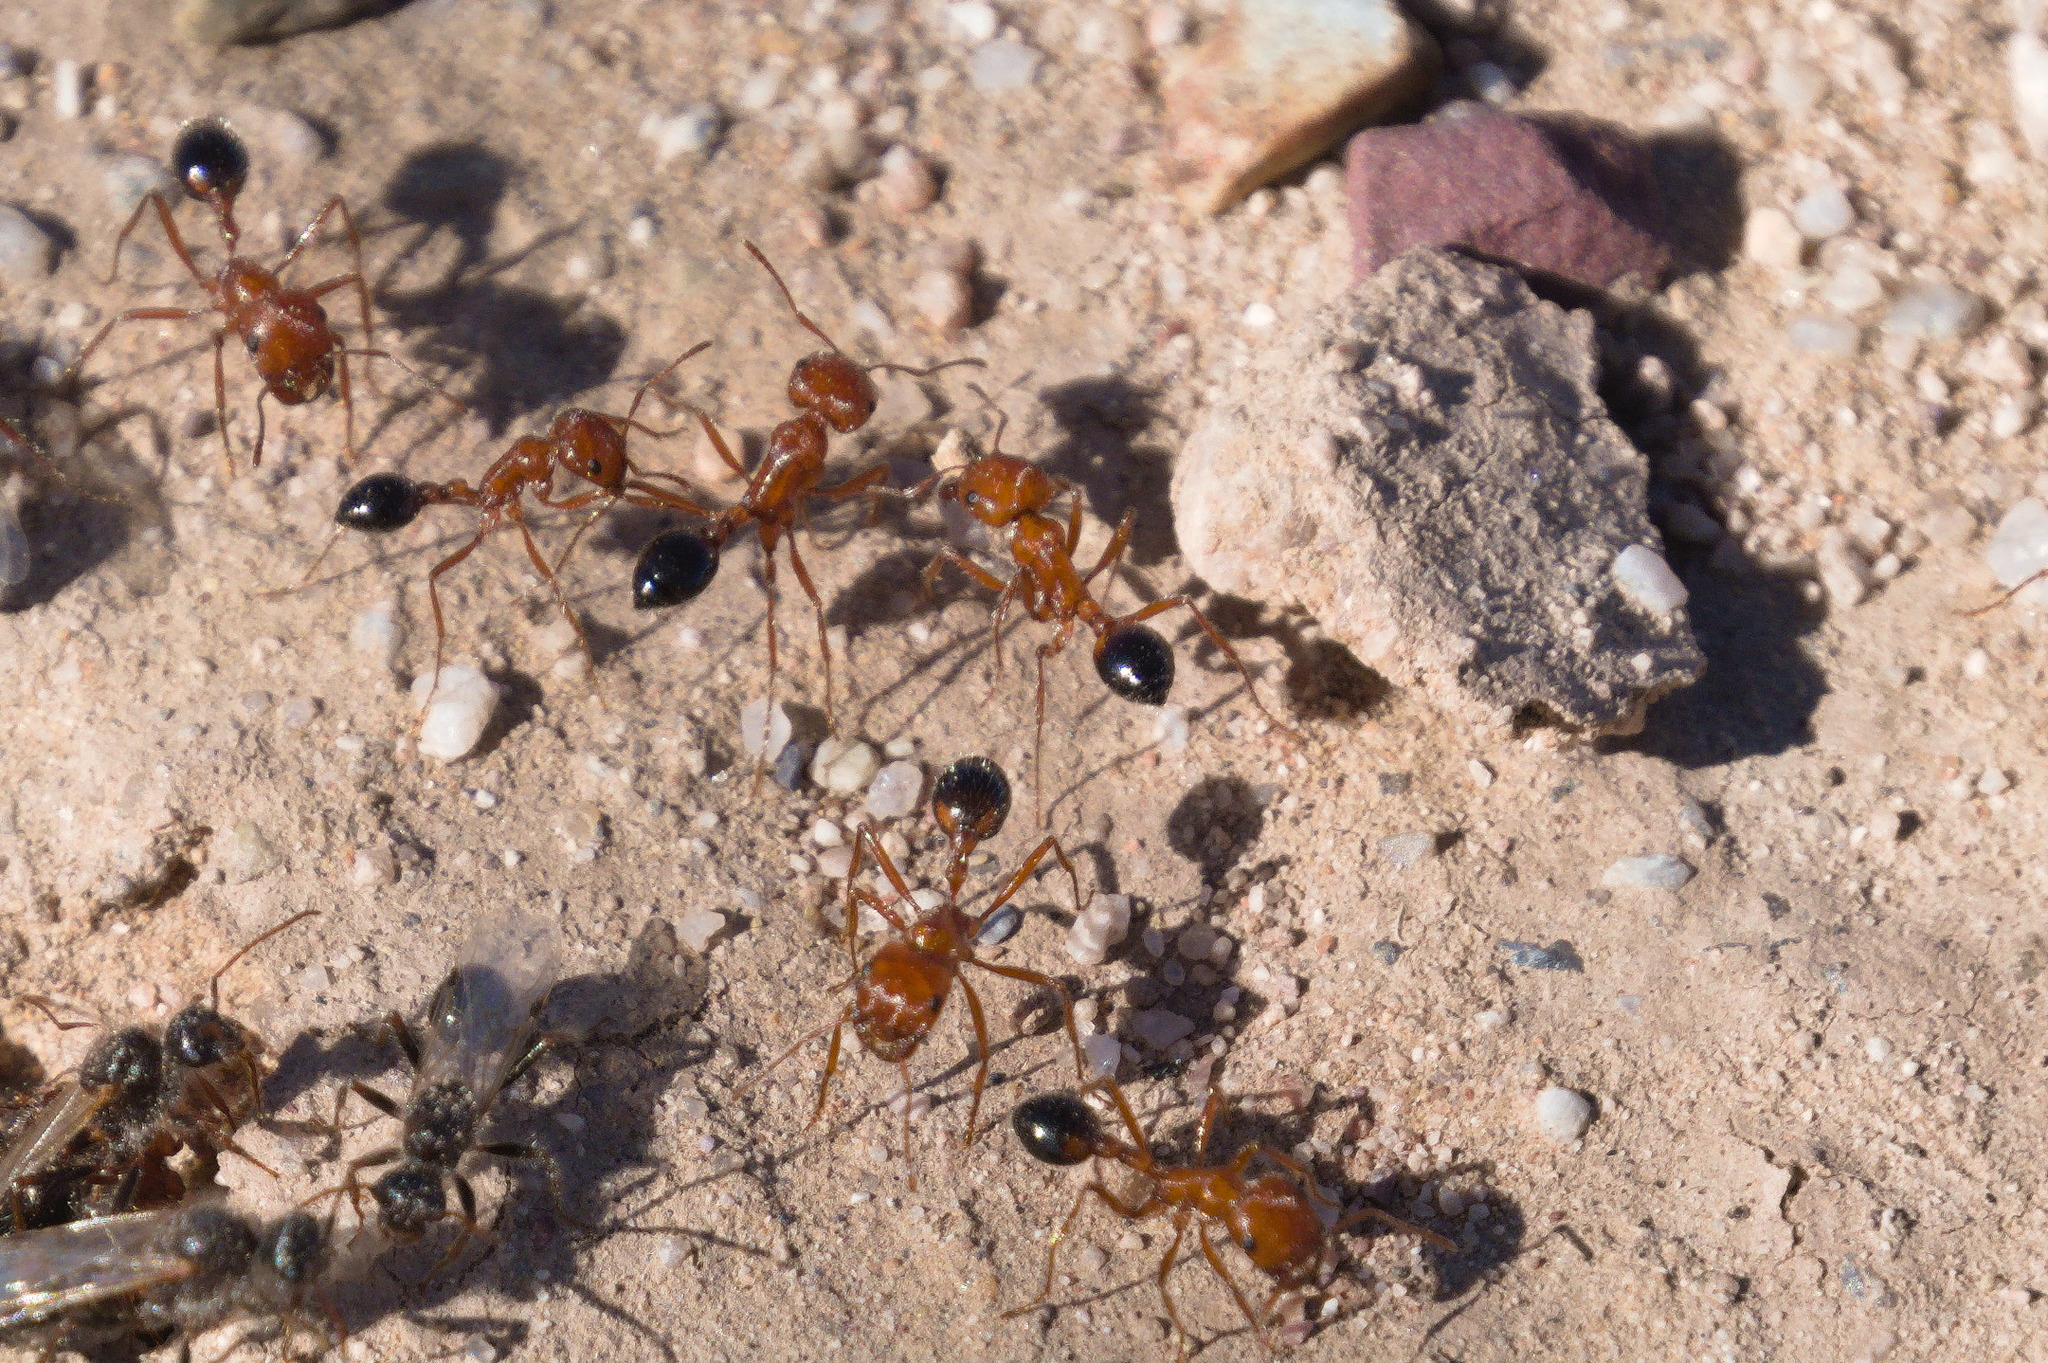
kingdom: Animalia
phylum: Arthropoda
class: Insecta
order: Hymenoptera
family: Formicidae
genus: Pogonomyrmex
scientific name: Pogonomyrmex californicus
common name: California harvester ant
